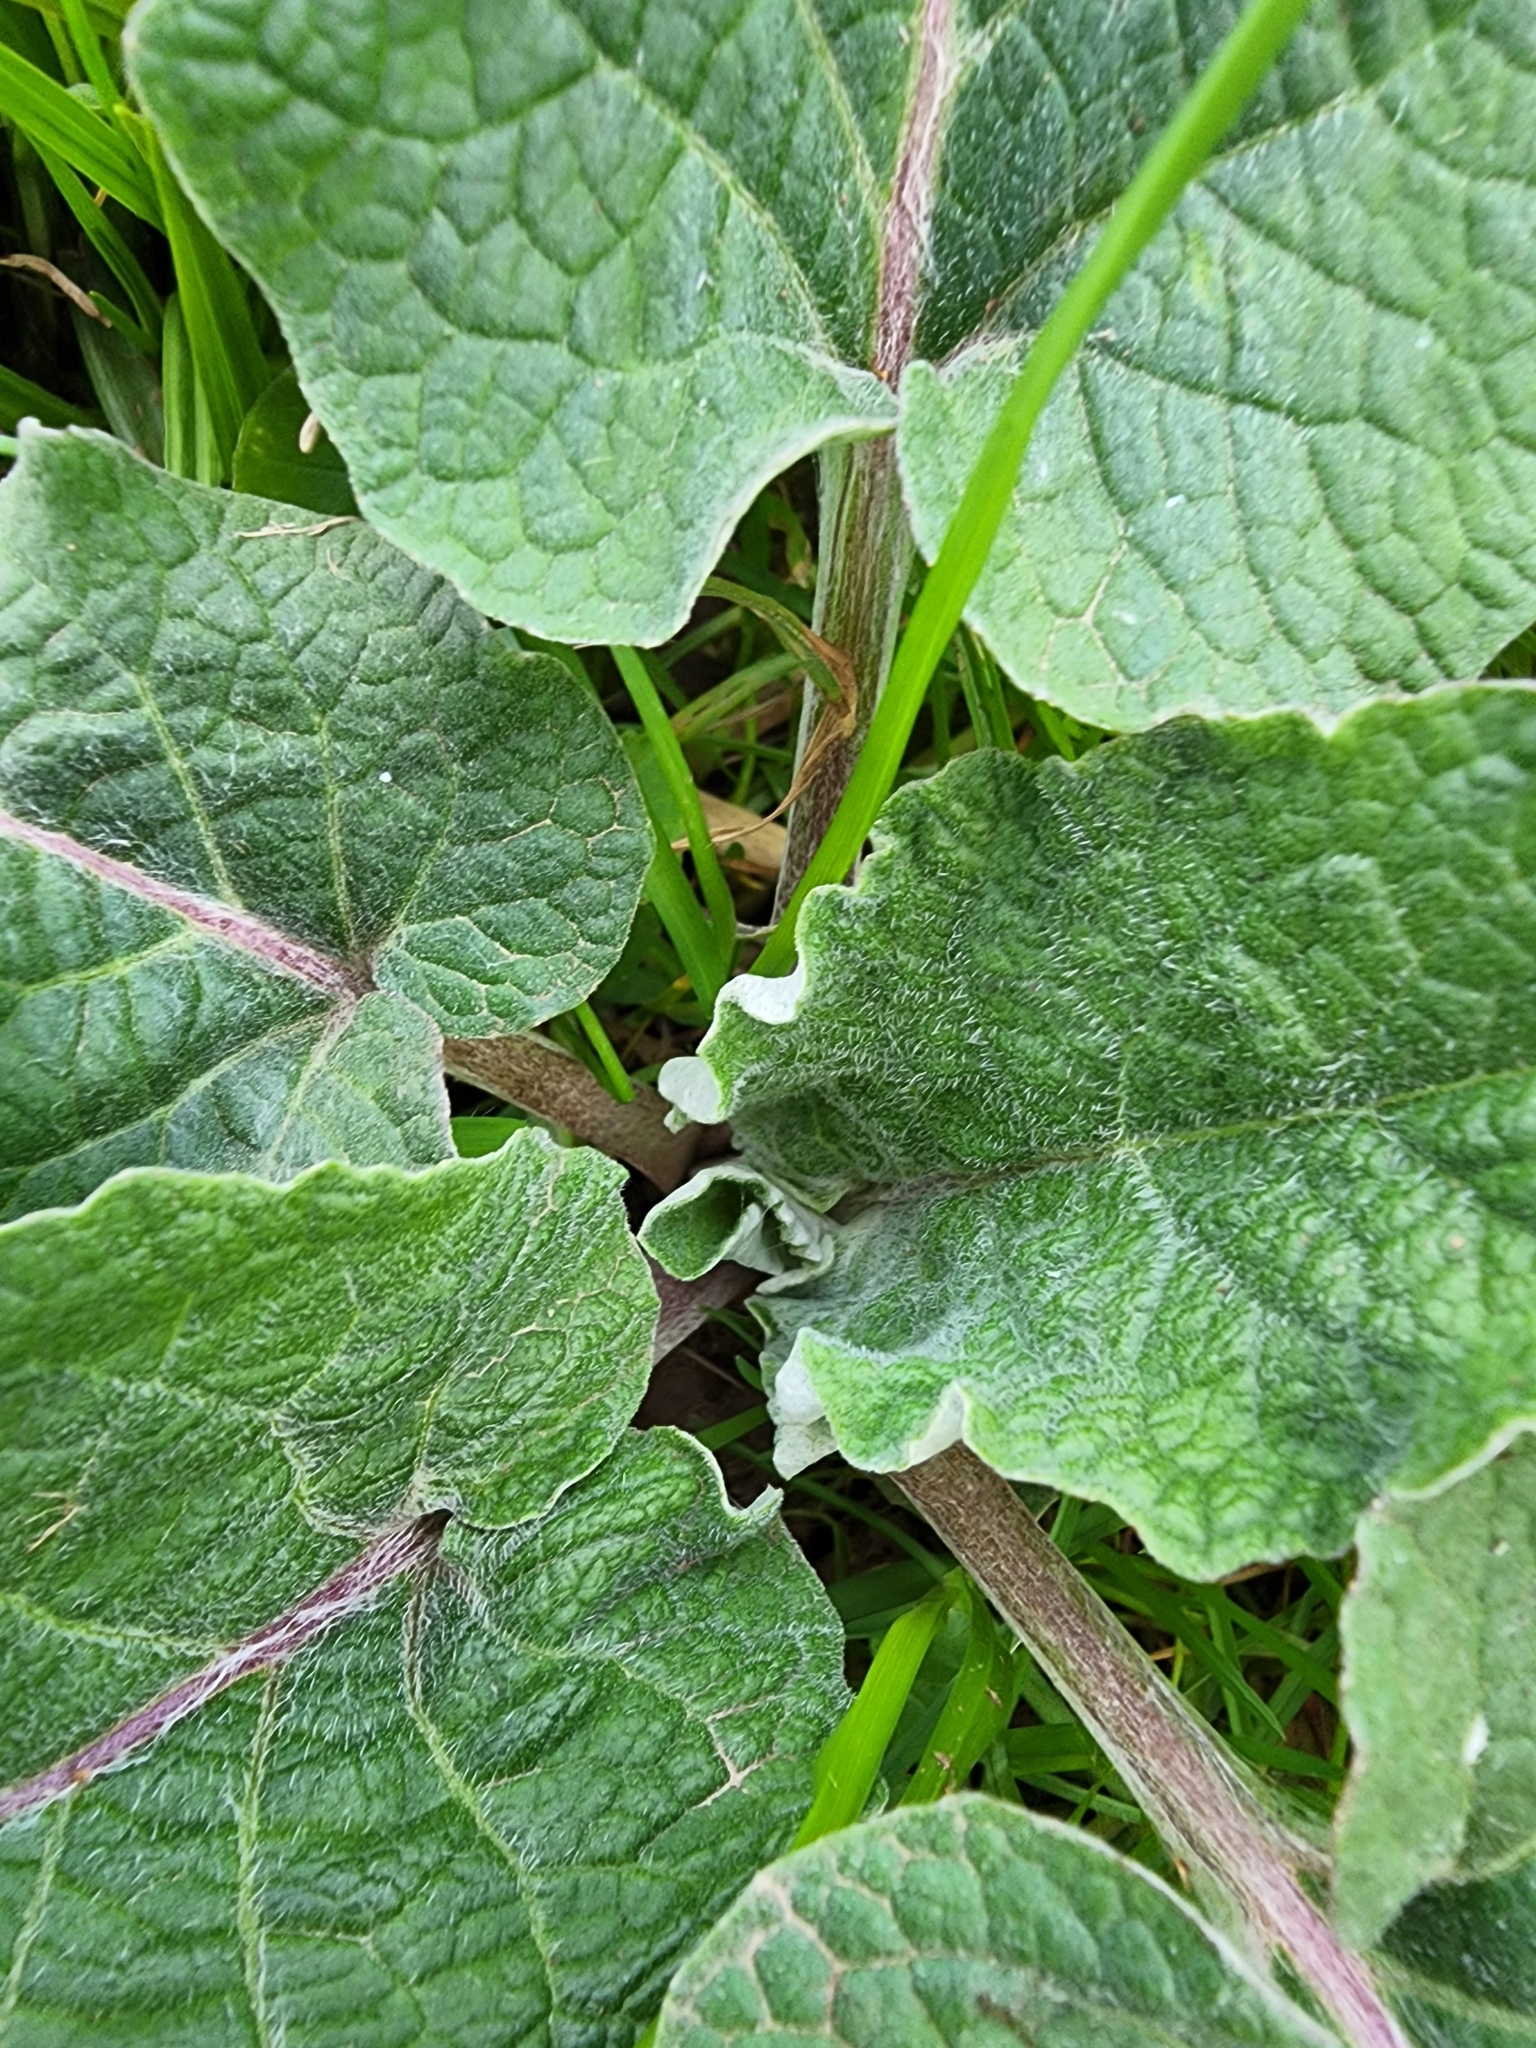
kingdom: Plantae
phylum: Tracheophyta
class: Magnoliopsida
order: Asterales
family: Asteraceae
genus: Arctium
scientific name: Arctium
